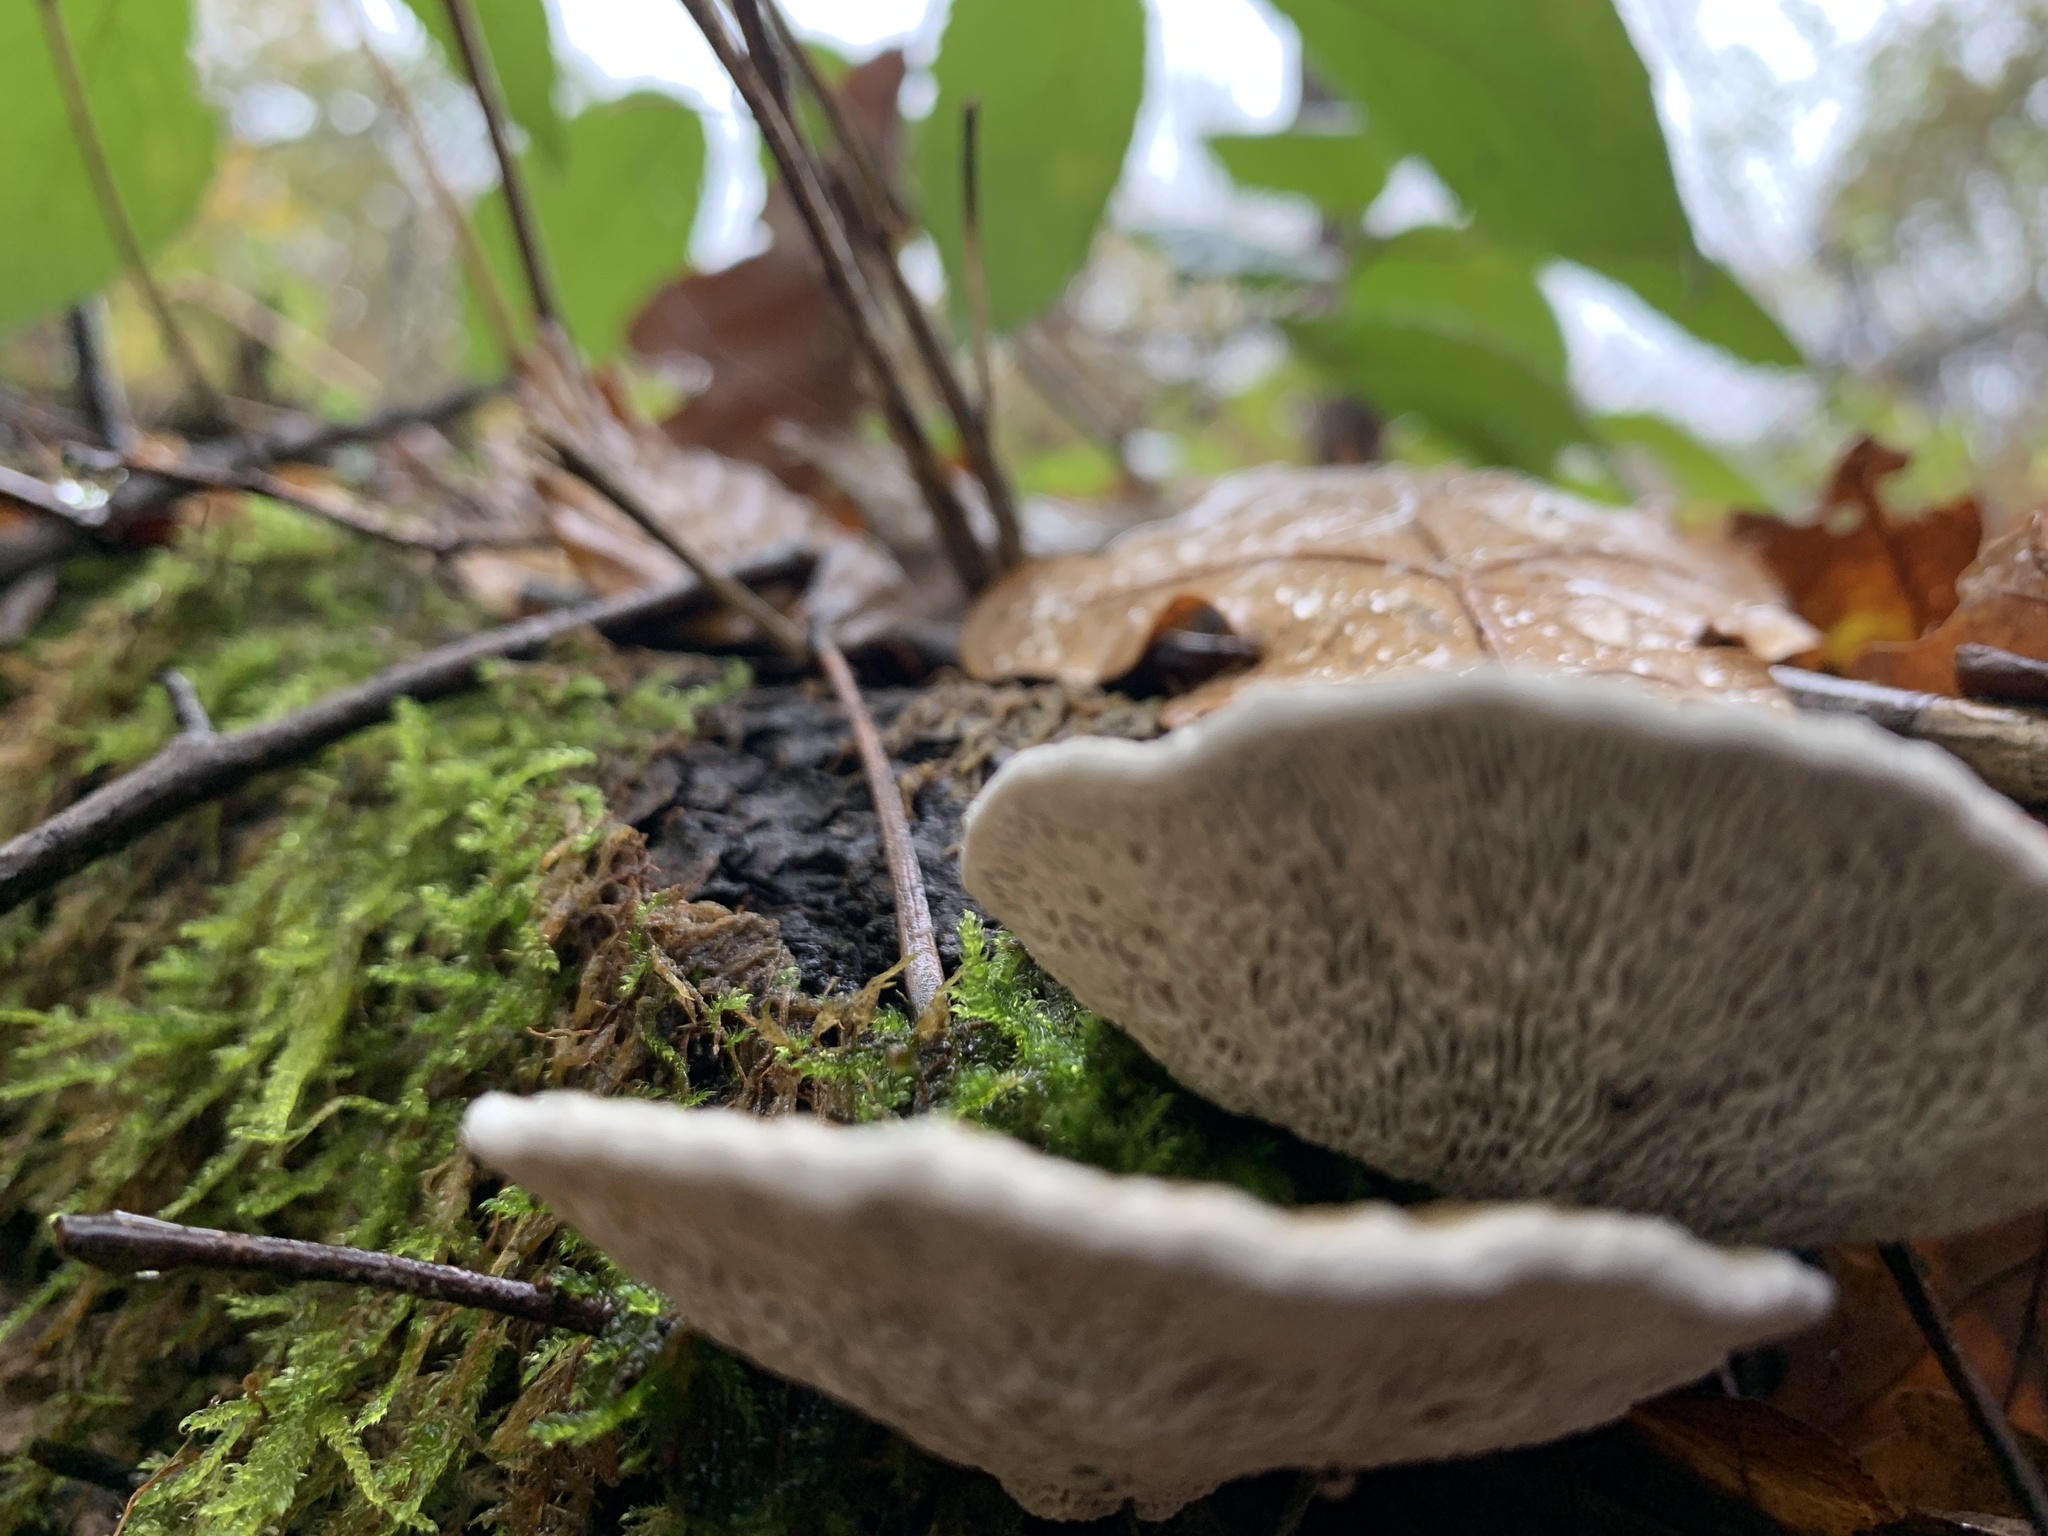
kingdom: Fungi
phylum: Basidiomycota
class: Agaricomycetes
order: Polyporales
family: Polyporaceae
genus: Daedaleopsis
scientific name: Daedaleopsis confragosa
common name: Blushing bracket
